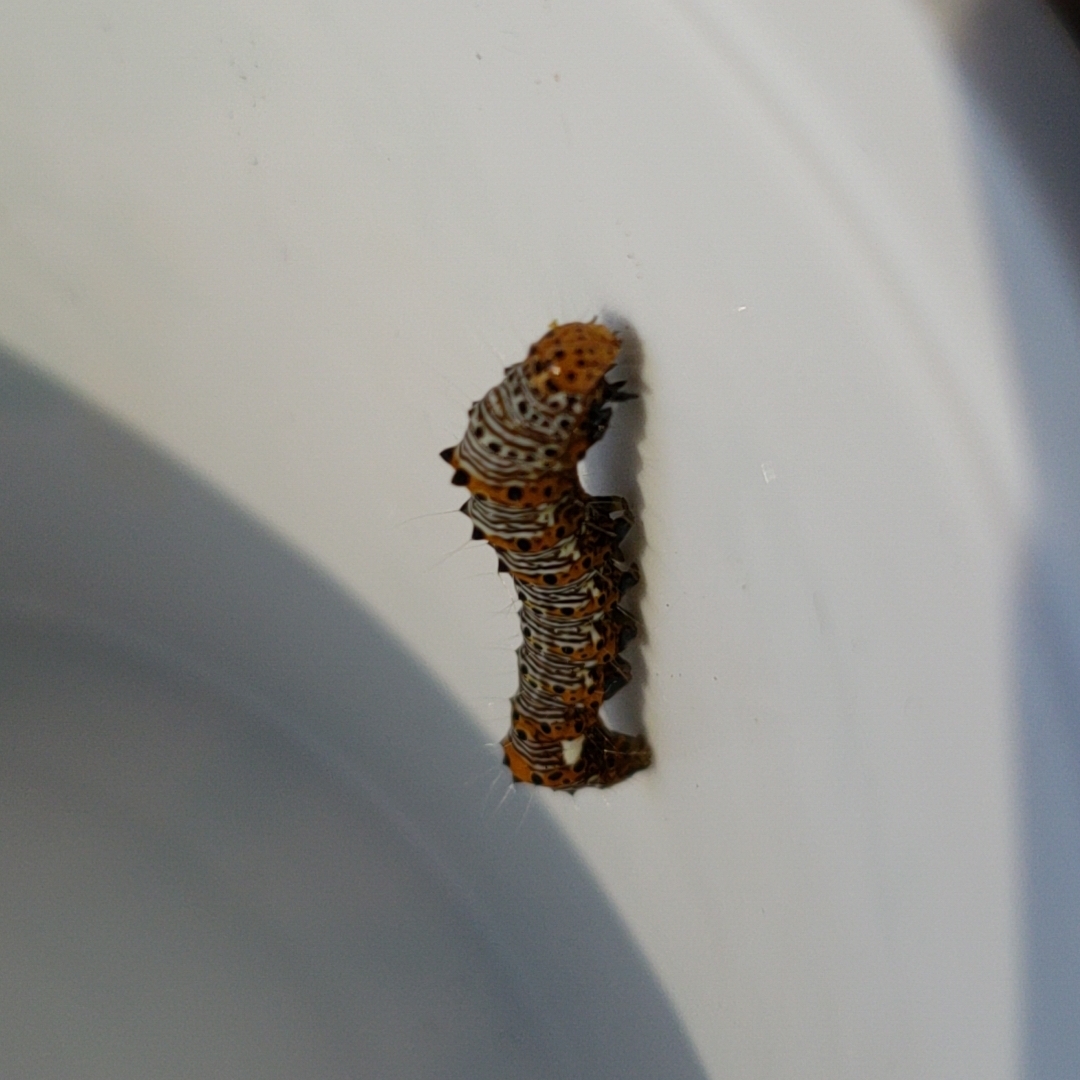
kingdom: Animalia
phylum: Arthropoda
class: Insecta
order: Lepidoptera
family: Noctuidae
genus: Alypia
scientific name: Alypia octomaculata
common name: Eight-spotted forester
